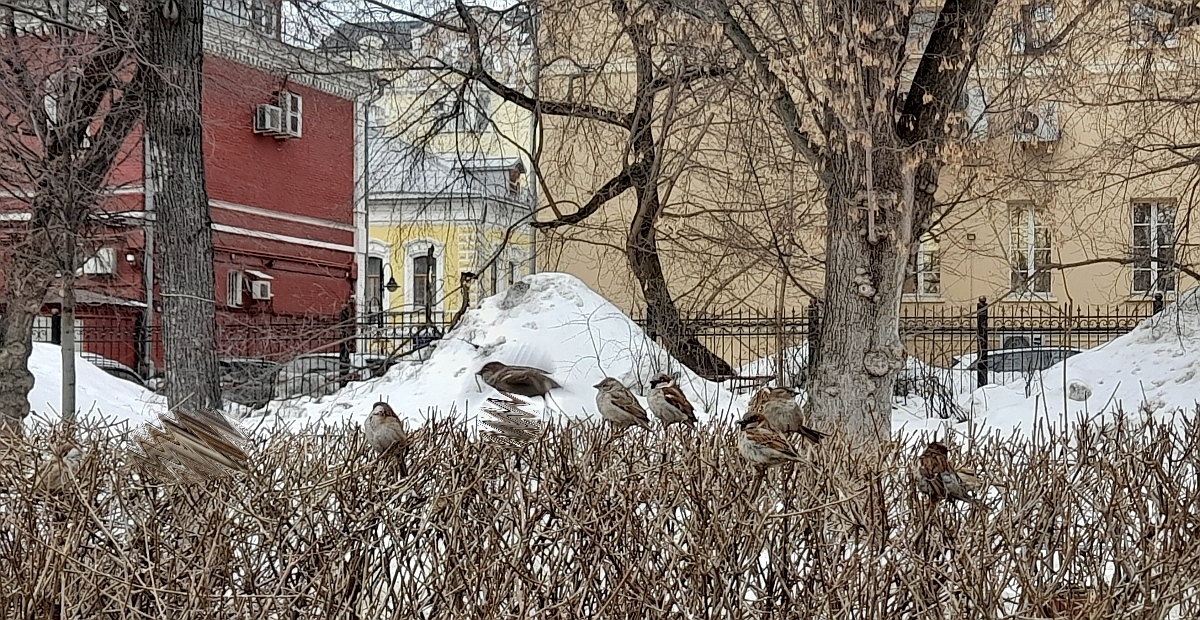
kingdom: Animalia
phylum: Chordata
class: Aves
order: Passeriformes
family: Passeridae
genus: Passer
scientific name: Passer domesticus
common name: House sparrow
